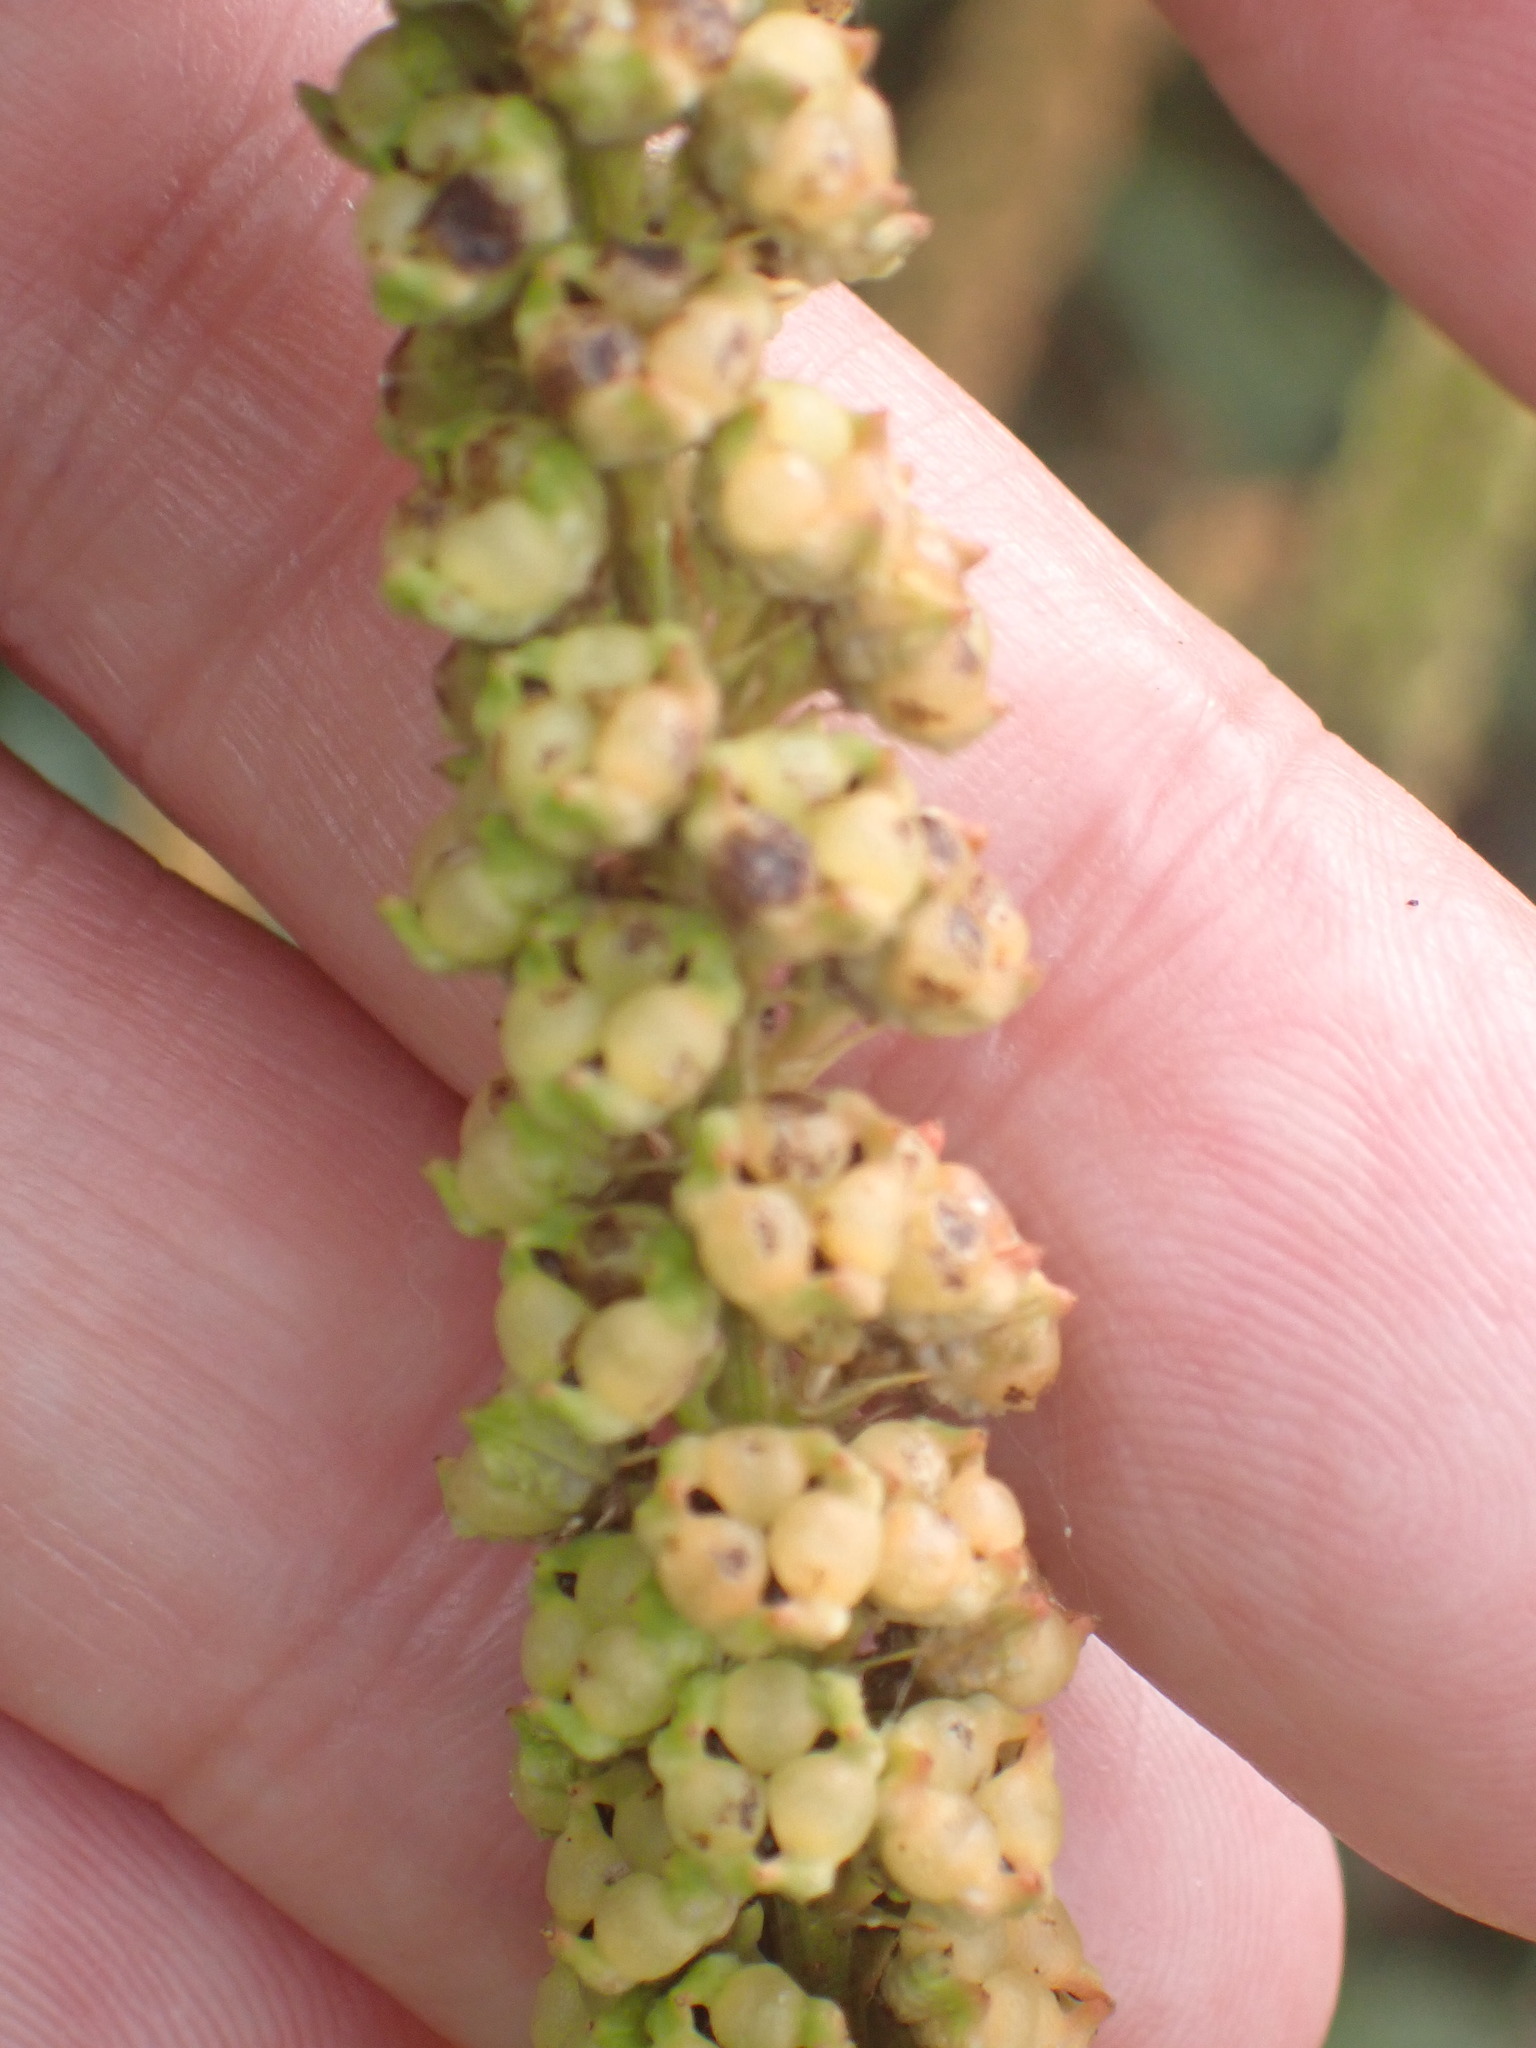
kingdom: Plantae
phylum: Tracheophyta
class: Magnoliopsida
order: Brassicales
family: Resedaceae
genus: Reseda
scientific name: Reseda luteola
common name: Weld
